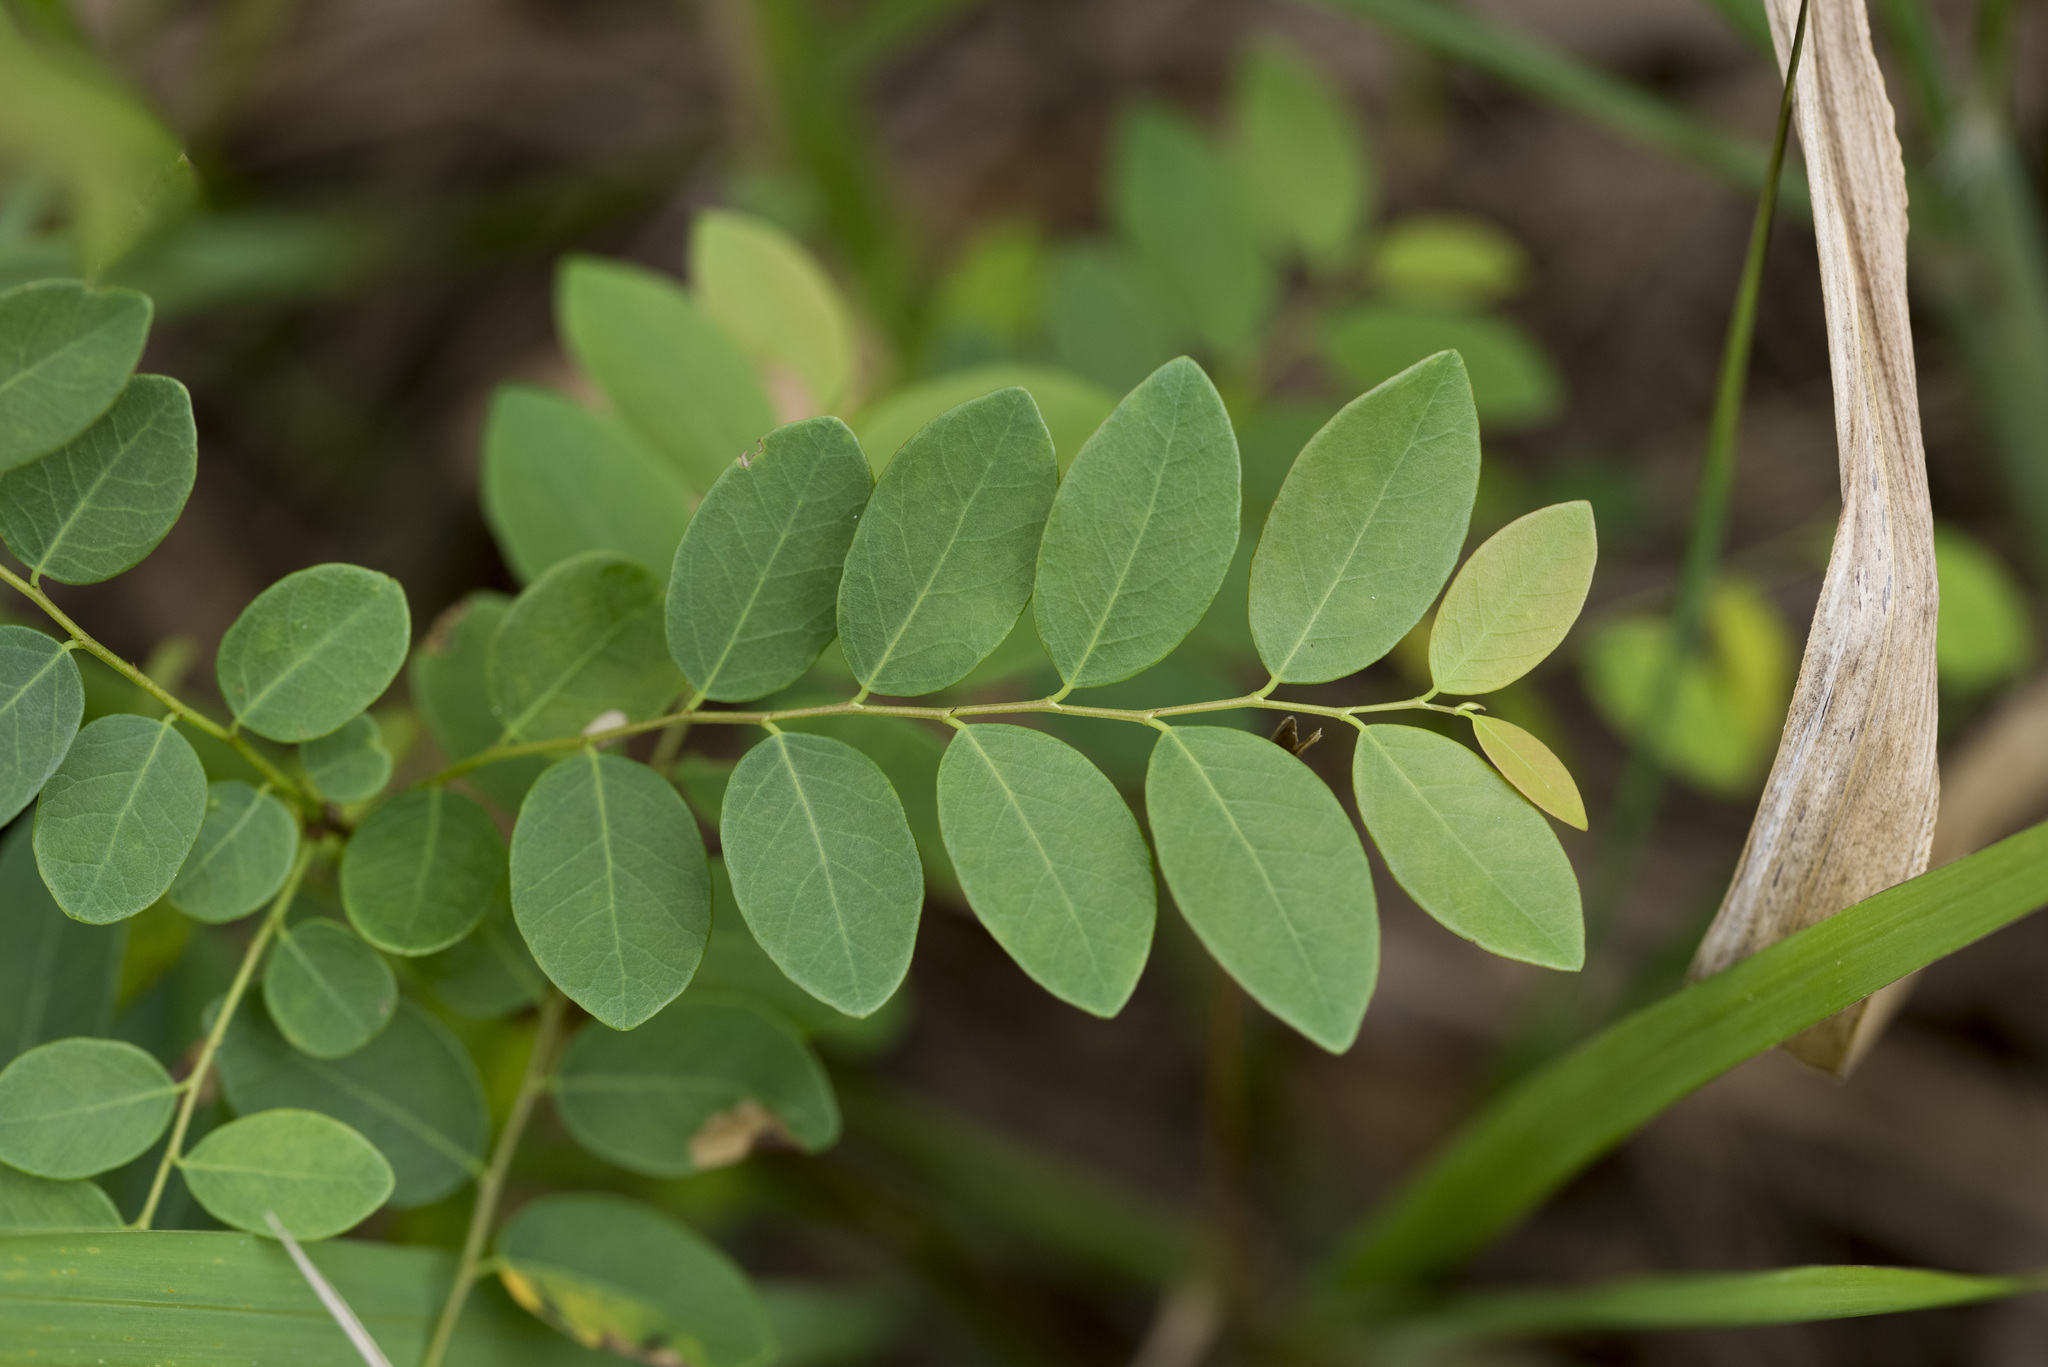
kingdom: Plantae
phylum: Tracheophyta
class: Magnoliopsida
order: Malpighiales
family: Phyllanthaceae
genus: Phyllanthus
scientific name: Phyllanthus reticulatus
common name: Potato bush
